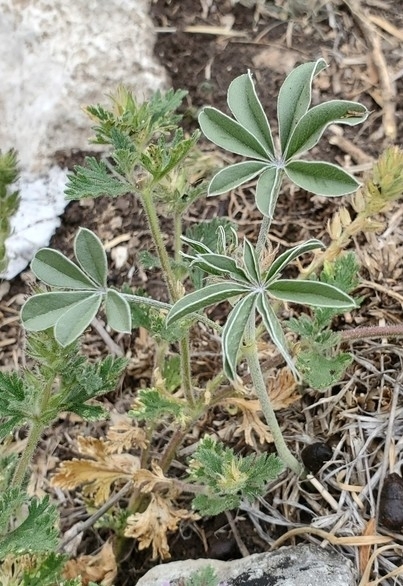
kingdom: Plantae
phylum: Tracheophyta
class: Magnoliopsida
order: Fabales
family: Fabaceae
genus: Pediomelum
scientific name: Pediomelum latestipulatum
